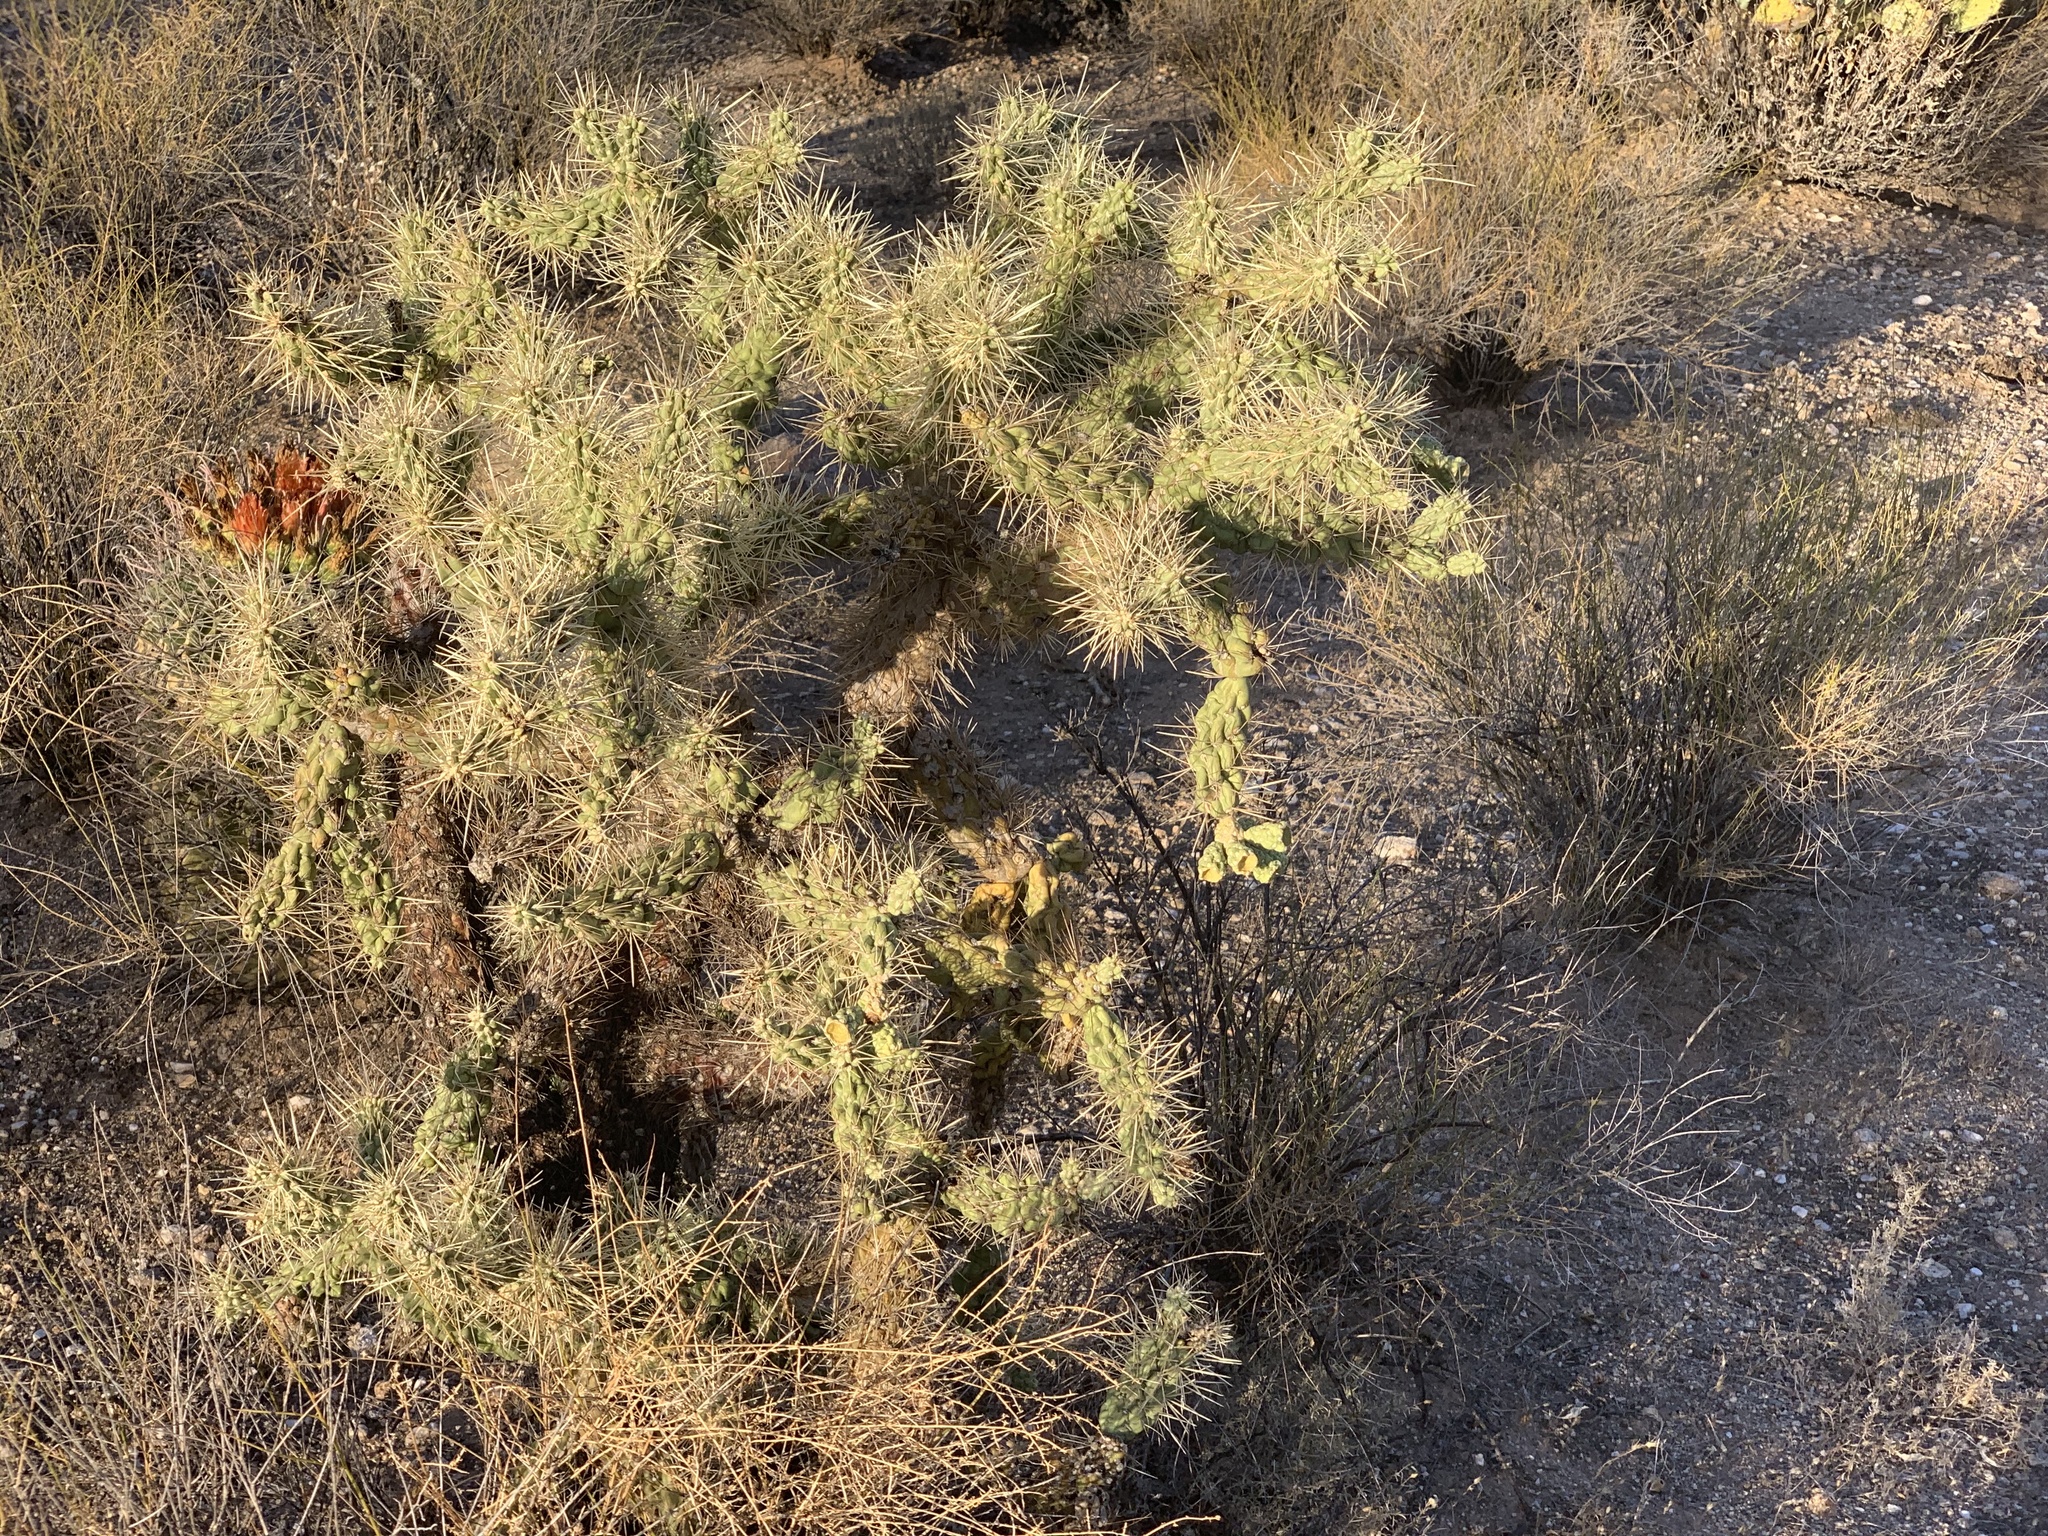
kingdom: Plantae
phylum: Tracheophyta
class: Magnoliopsida
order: Caryophyllales
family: Cactaceae
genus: Cylindropuntia
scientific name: Cylindropuntia fulgida
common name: Jumping cholla
